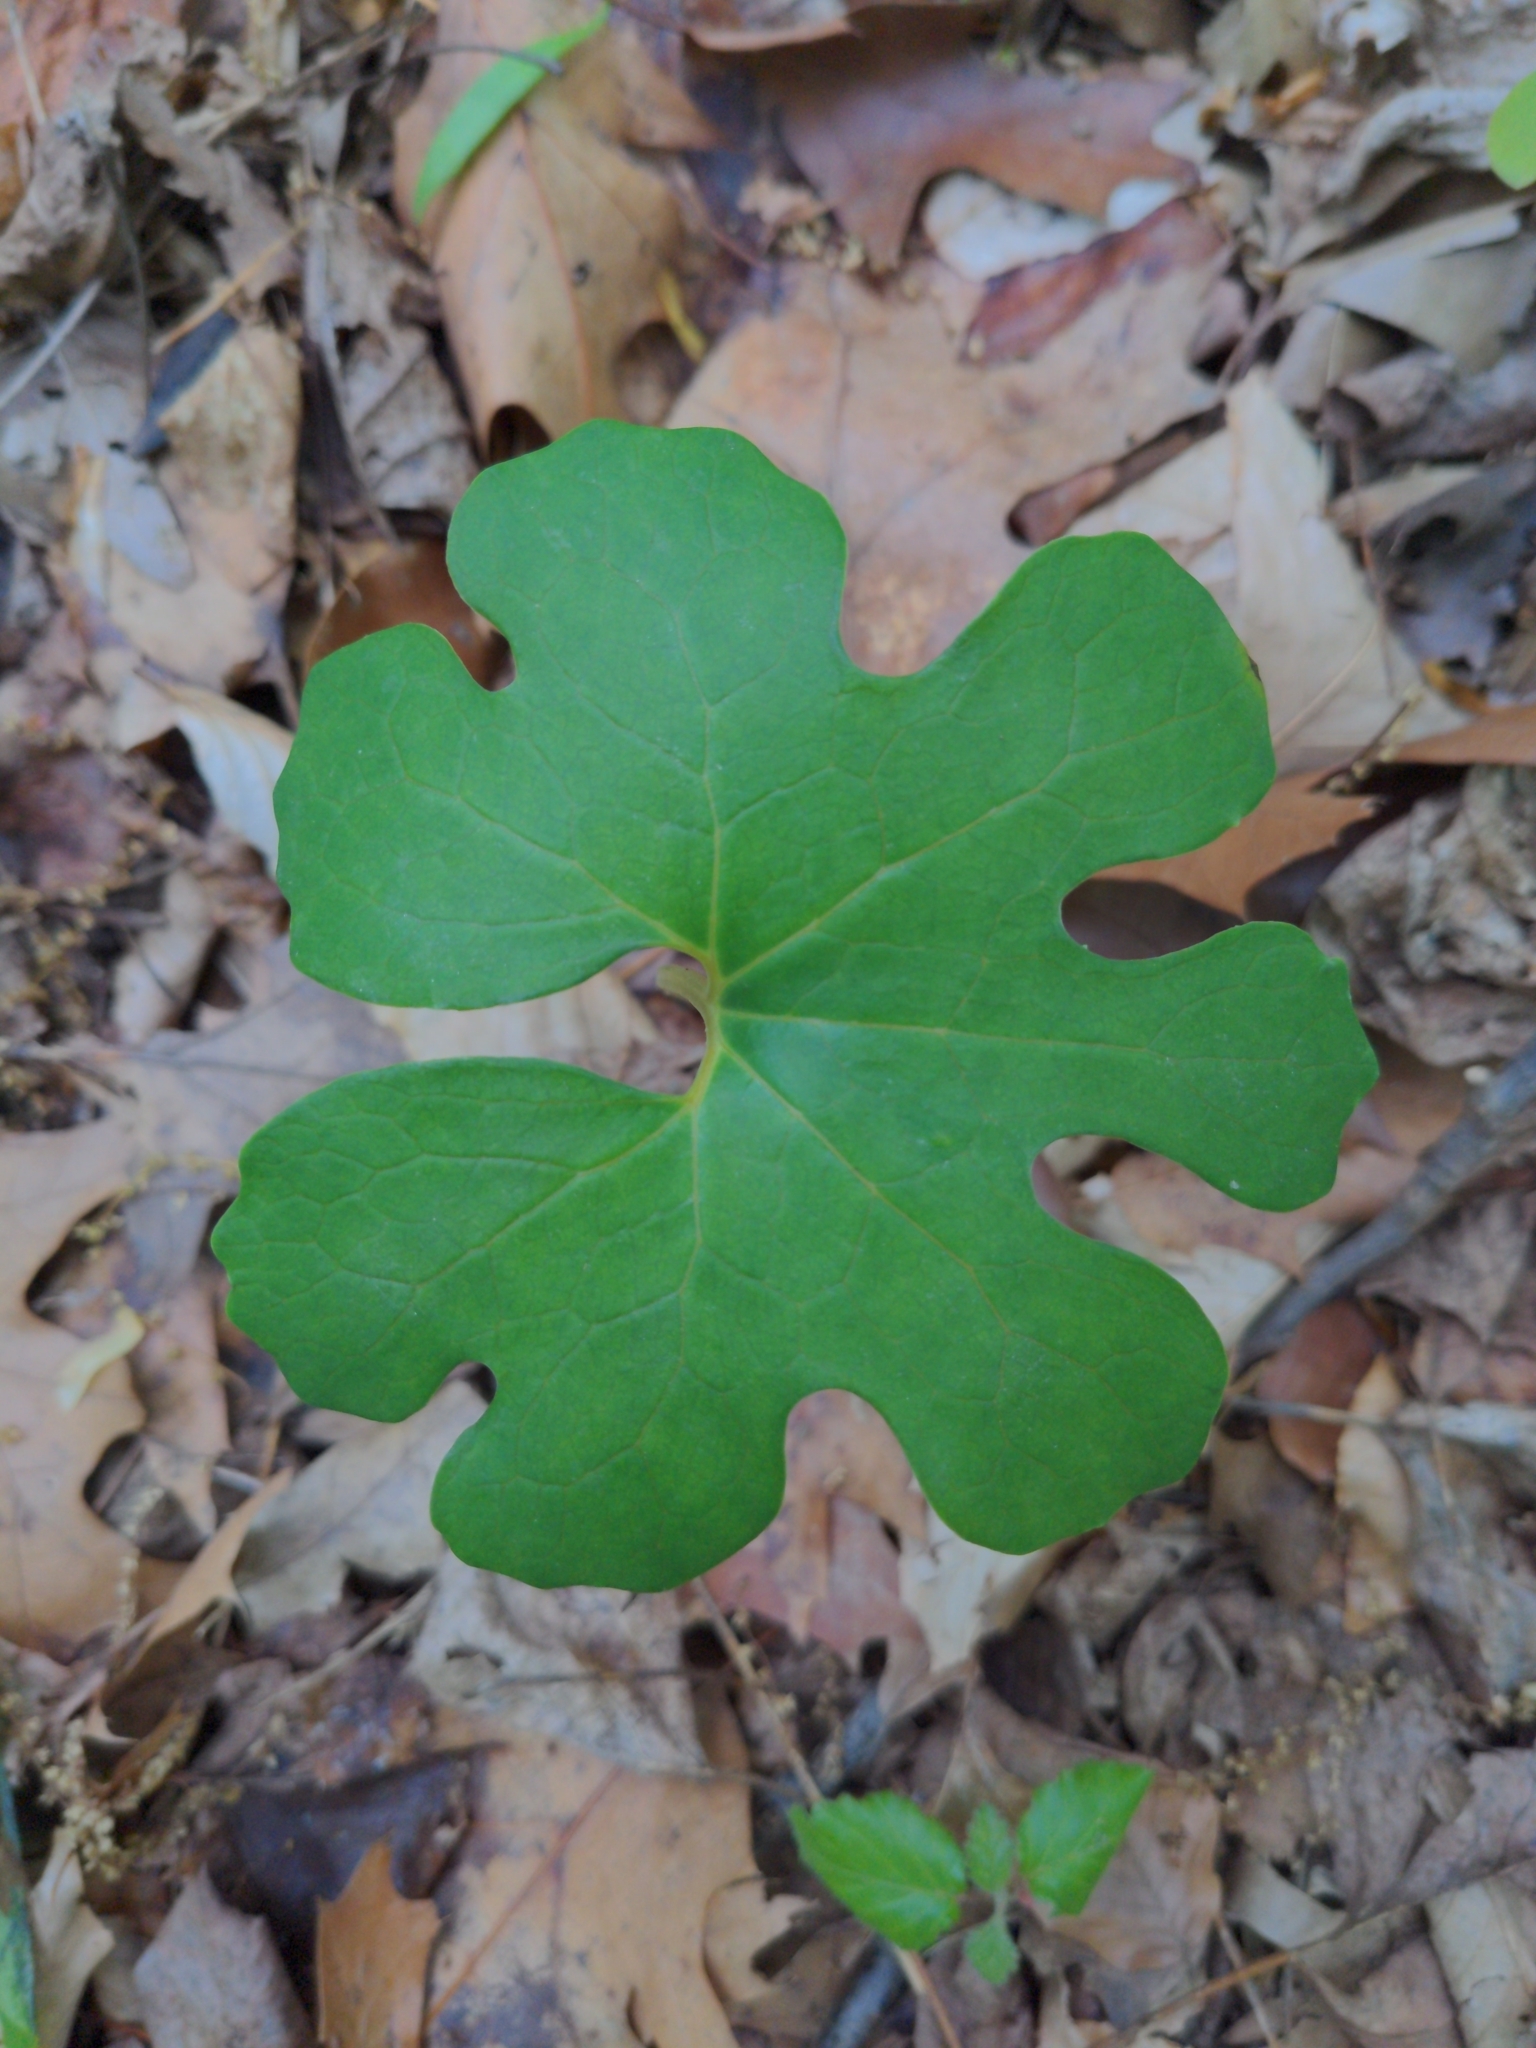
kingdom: Plantae
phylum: Tracheophyta
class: Magnoliopsida
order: Ranunculales
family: Papaveraceae
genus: Sanguinaria
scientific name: Sanguinaria canadensis
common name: Bloodroot
